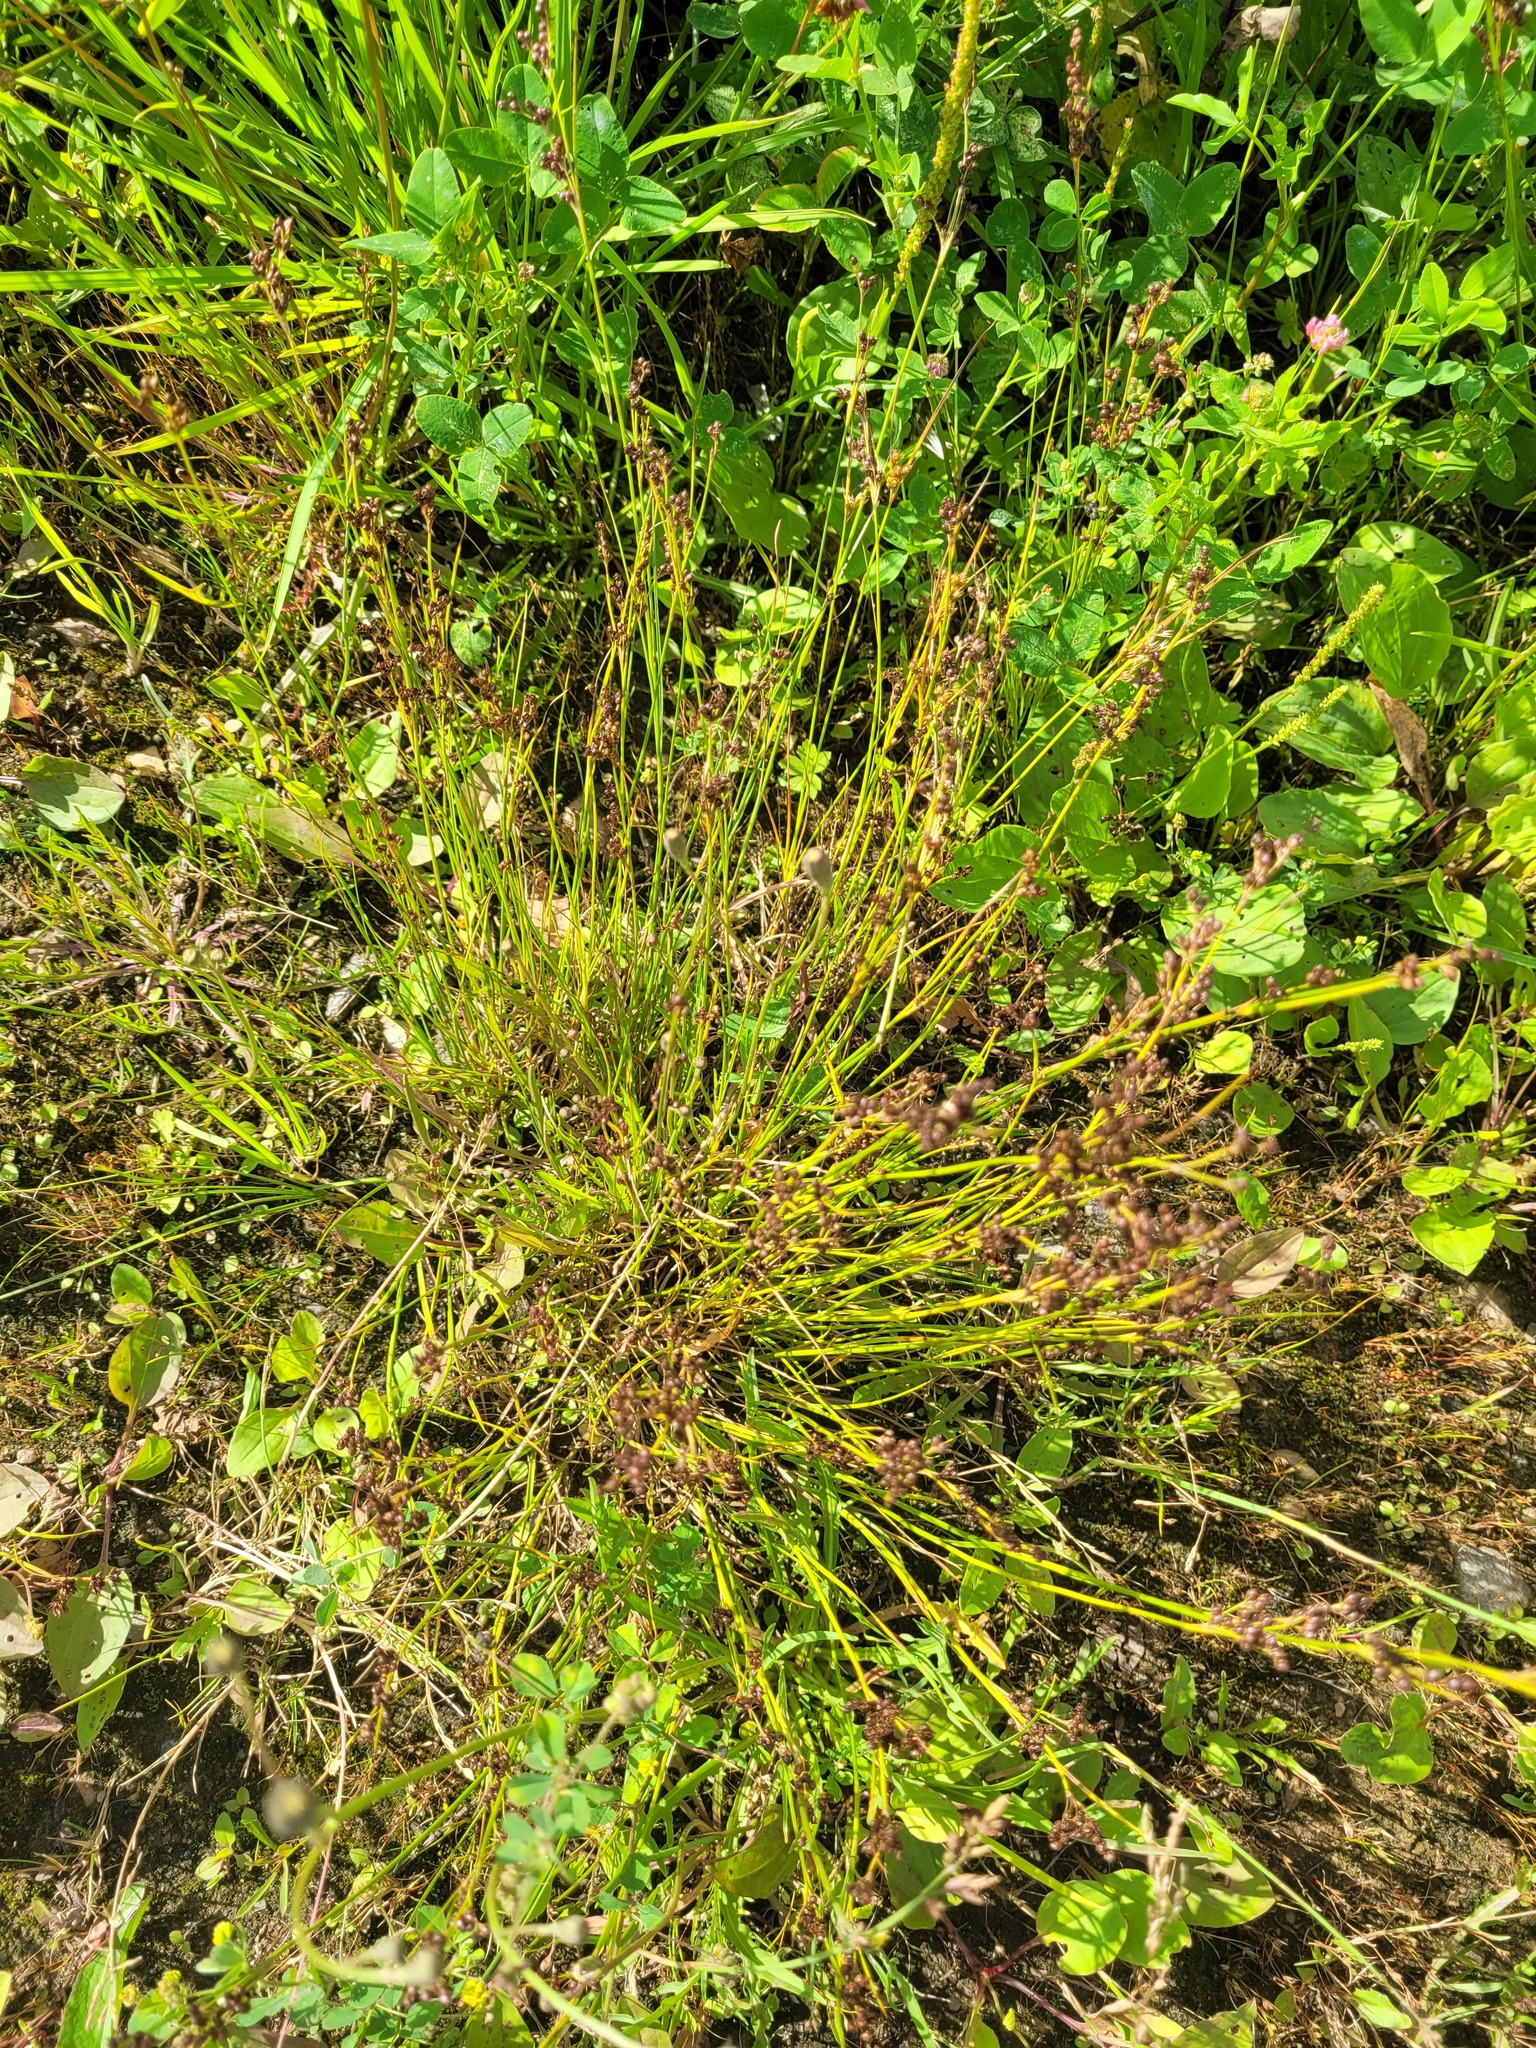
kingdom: Plantae
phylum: Tracheophyta
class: Liliopsida
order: Poales
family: Juncaceae
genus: Juncus
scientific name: Juncus compressus
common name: Round-fruited rush
